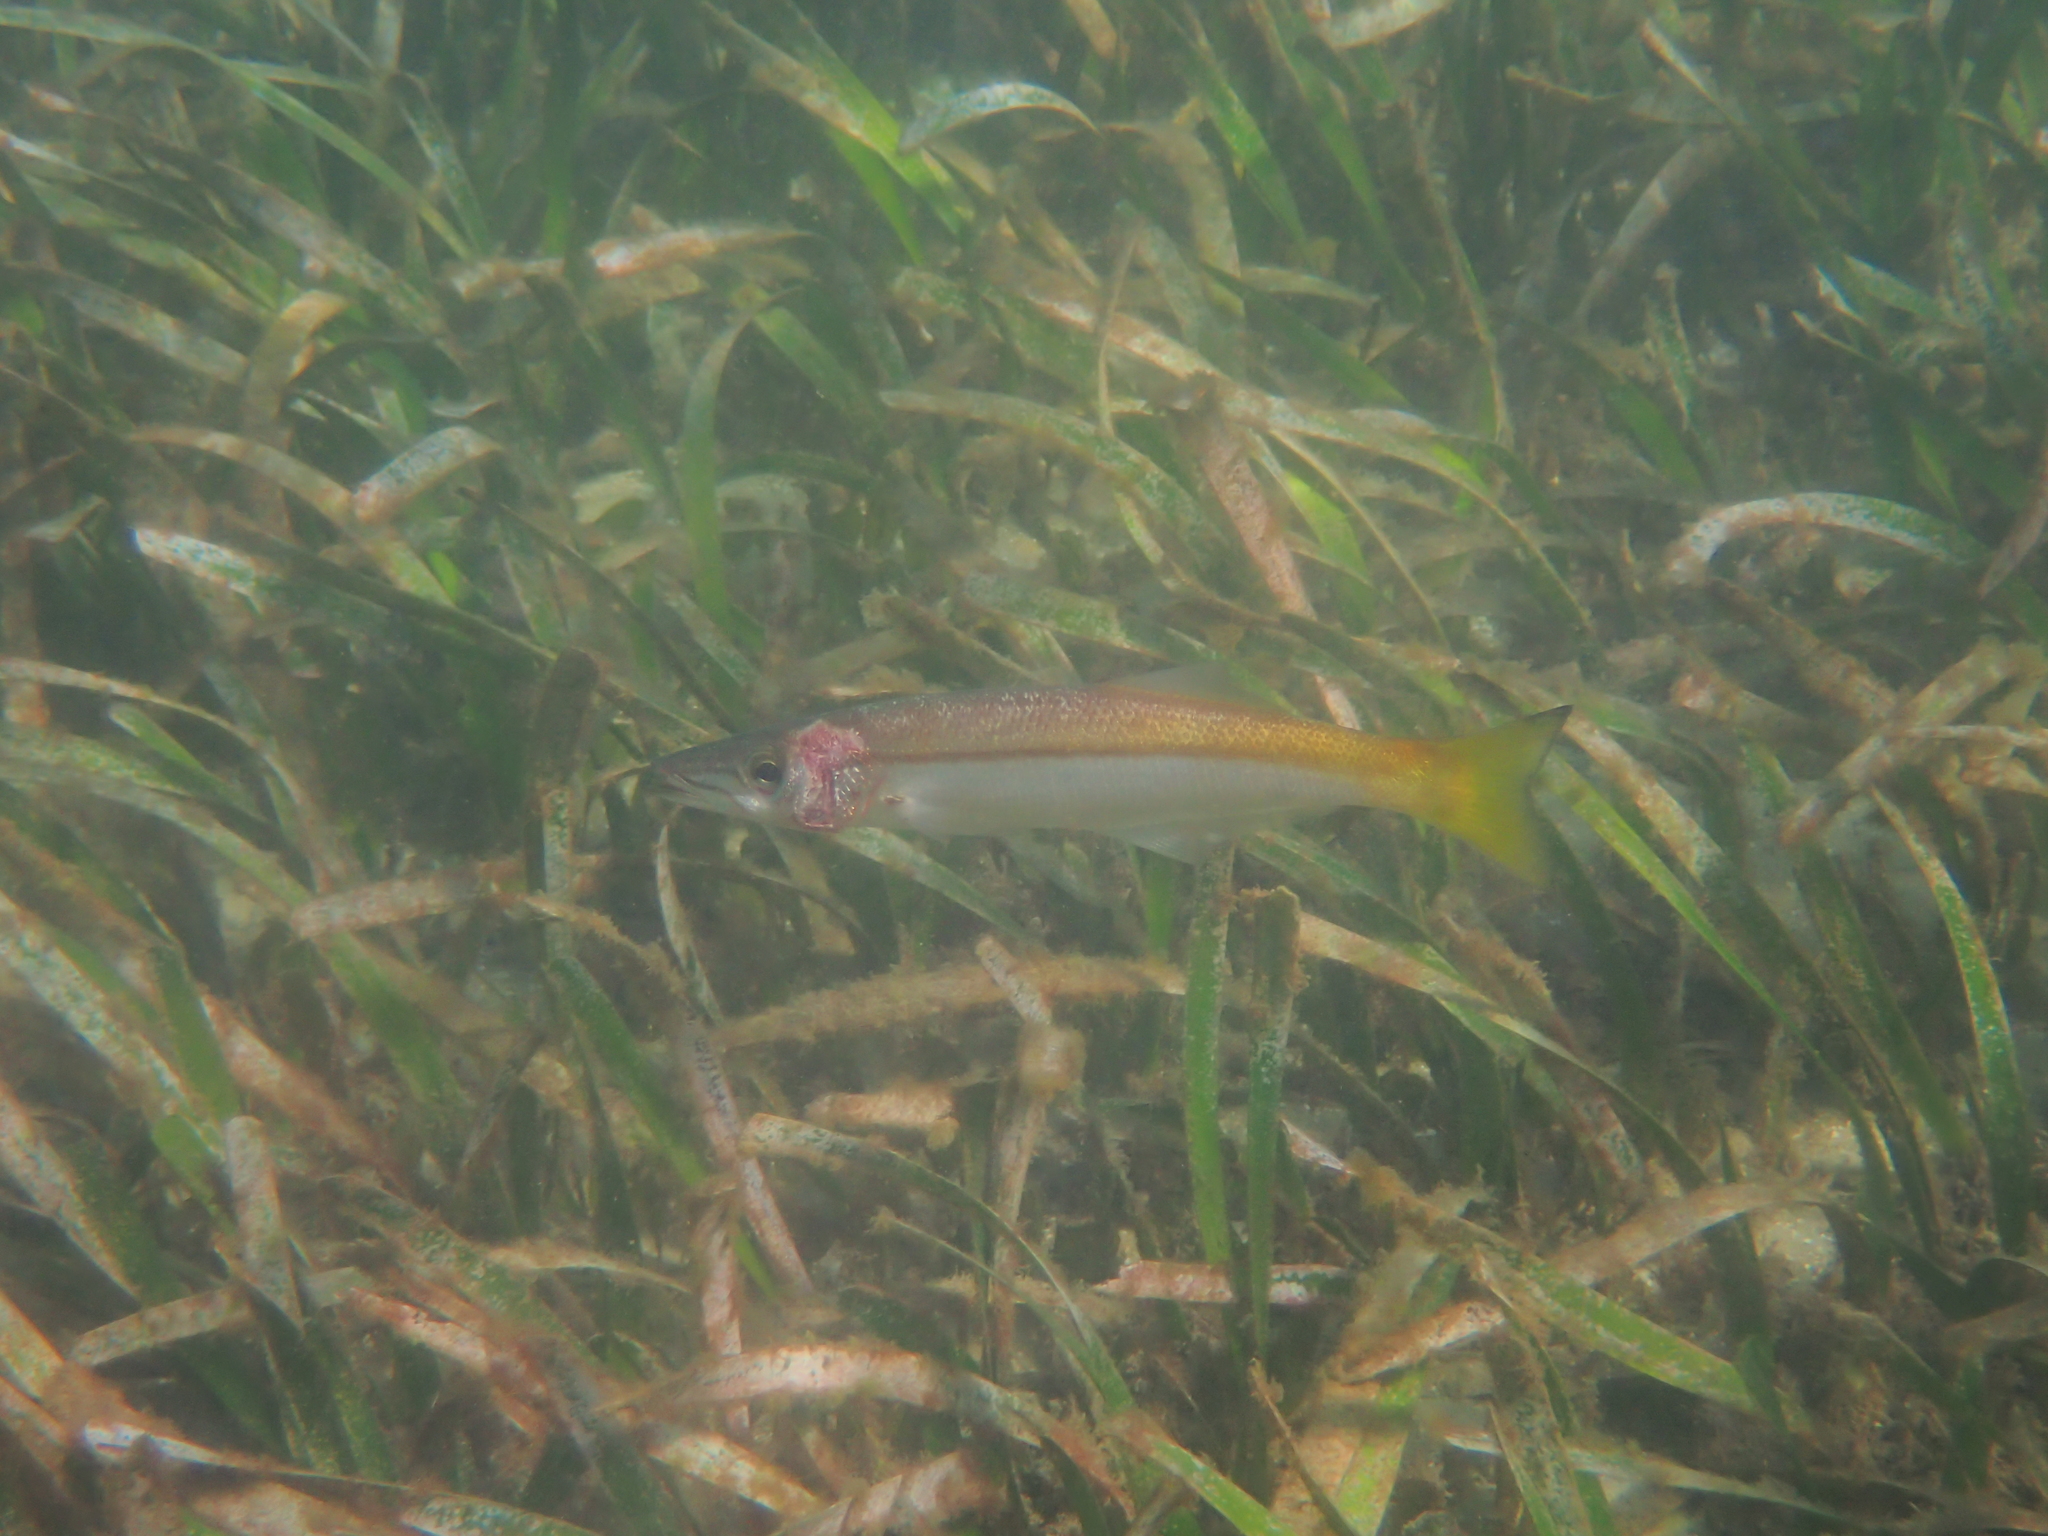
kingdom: Animalia
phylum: Chordata
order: Perciformes
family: Dinolestidae
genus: Dinolestes
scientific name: Dinolestes lewini
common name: Jack pike
